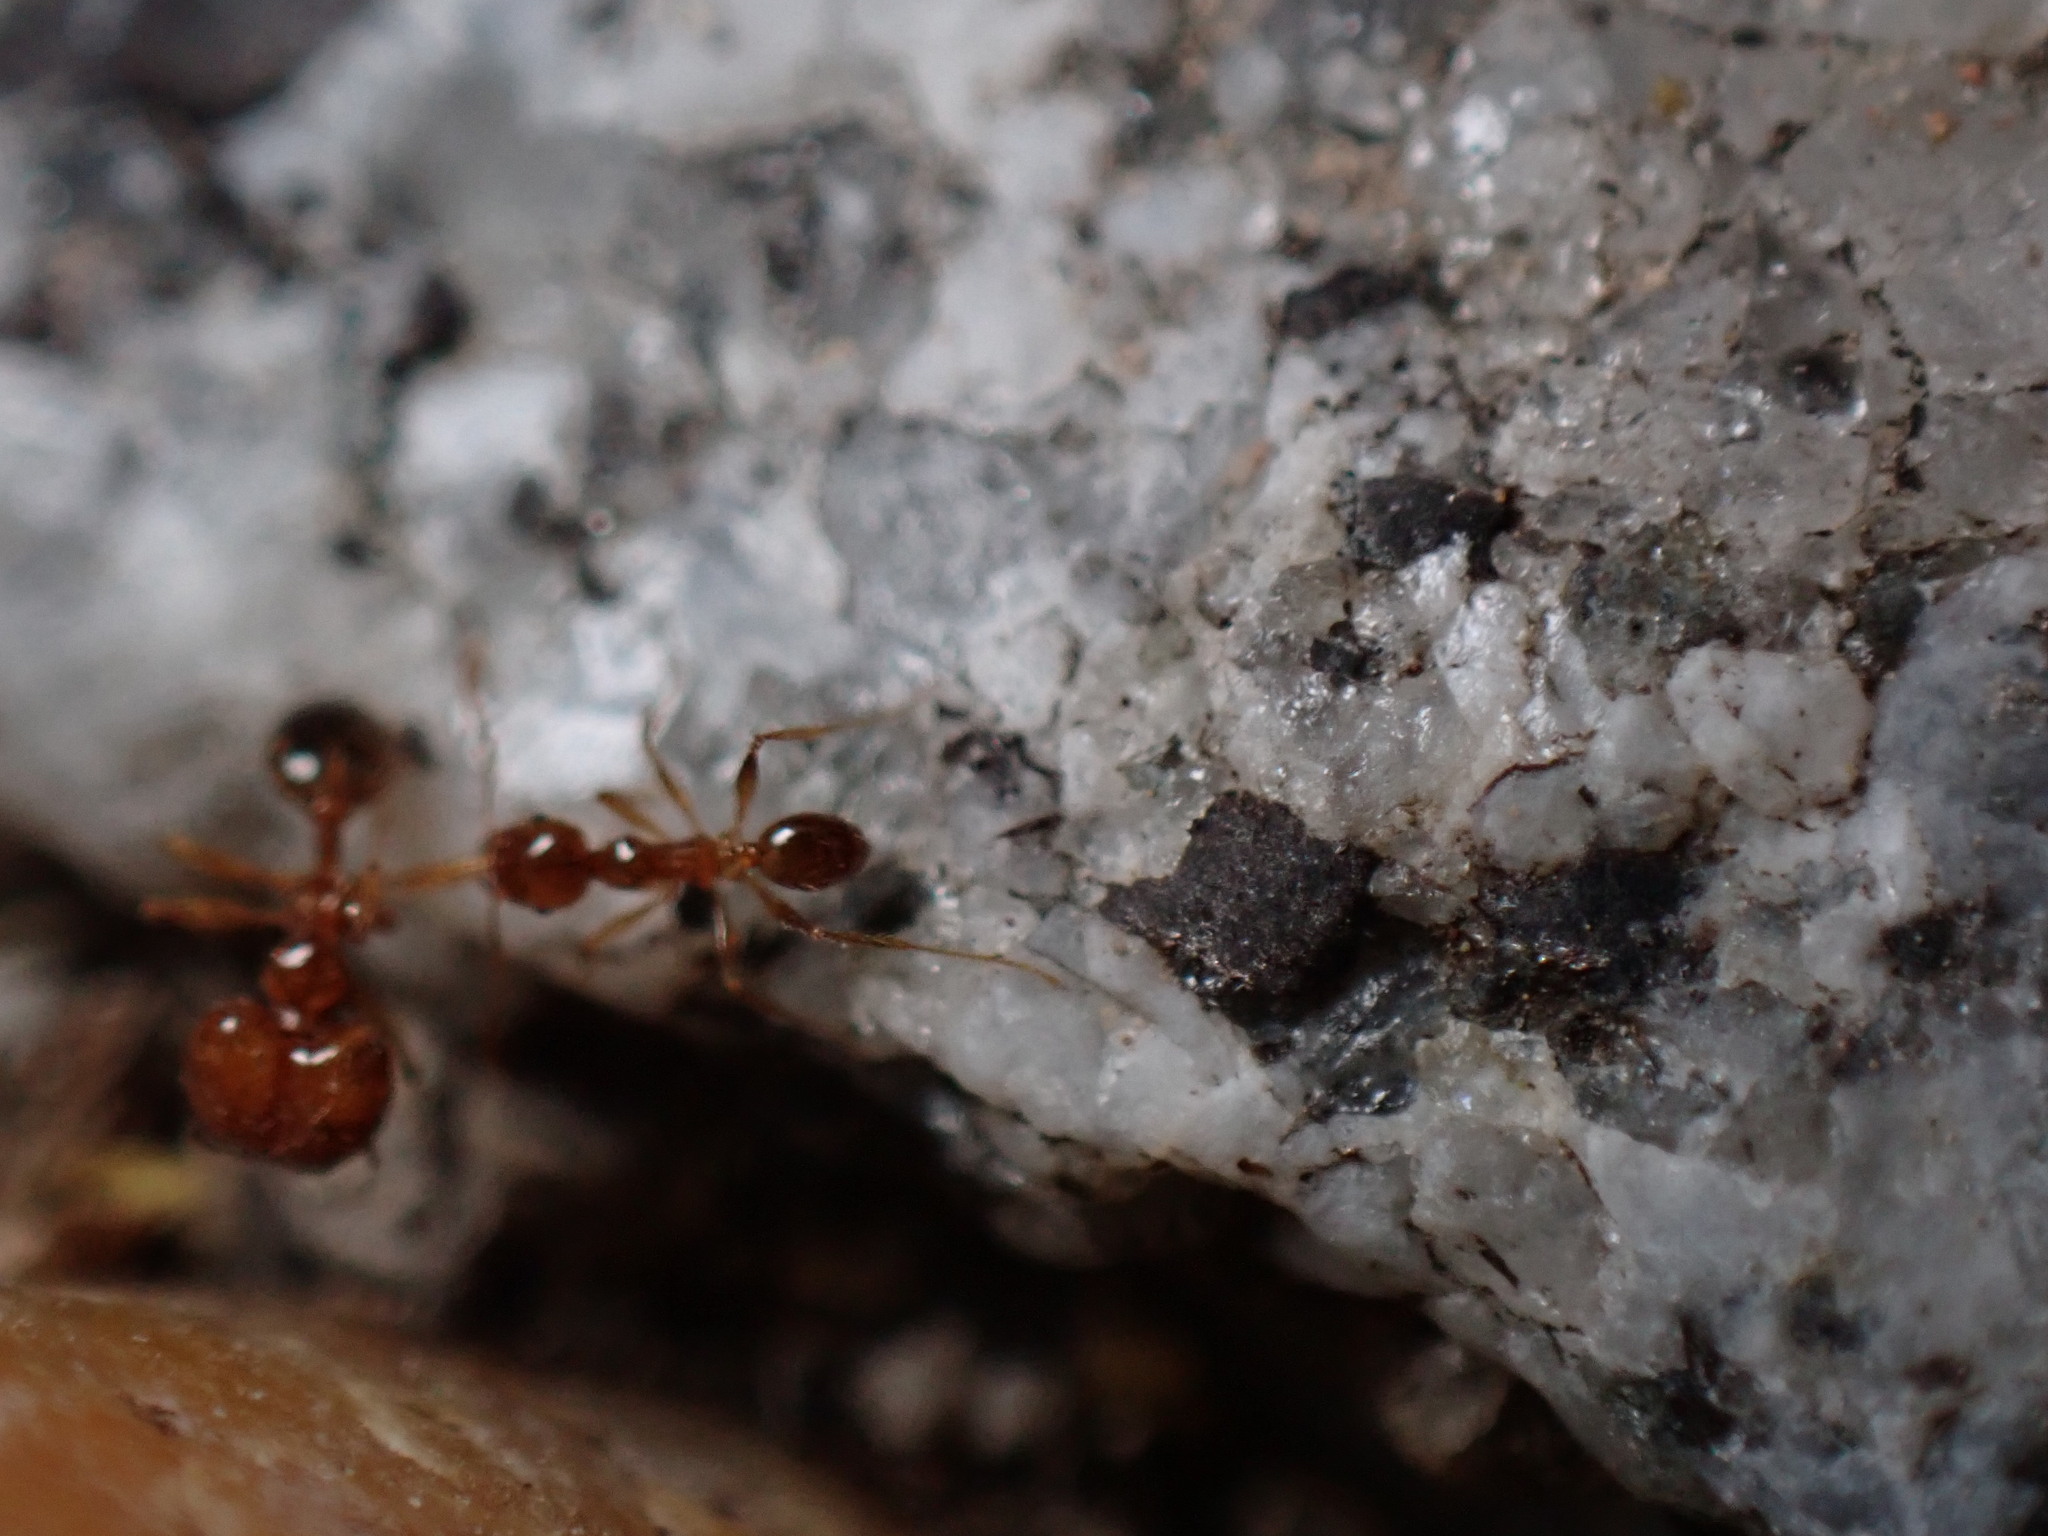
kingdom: Animalia
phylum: Arthropoda
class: Insecta
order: Hymenoptera
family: Formicidae
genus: Pheidole
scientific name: Pheidole pallidula
